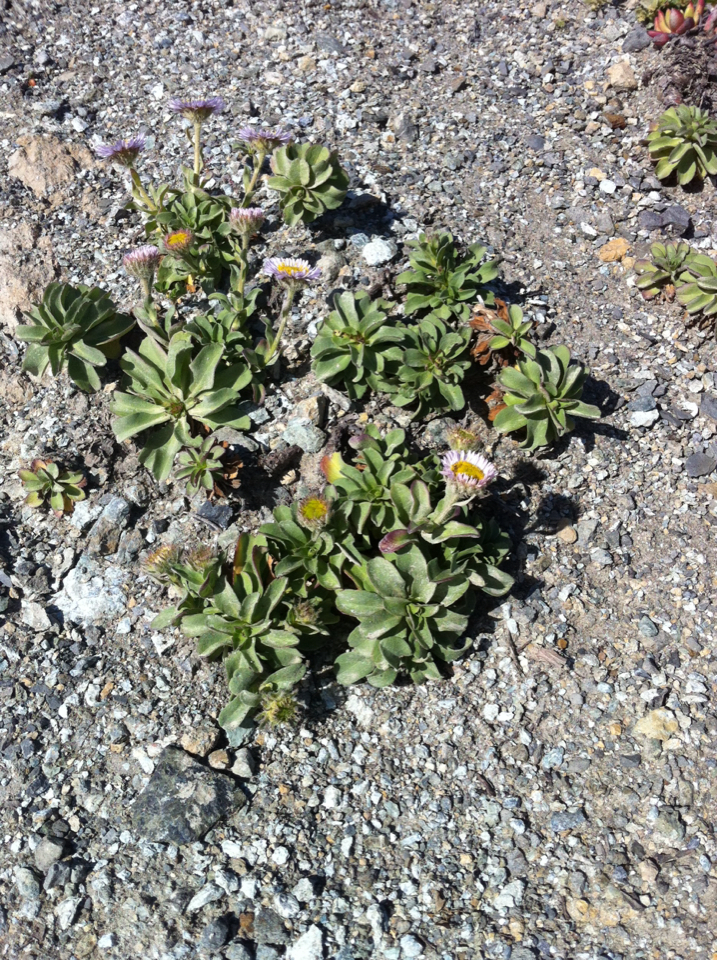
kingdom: Plantae
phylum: Tracheophyta
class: Magnoliopsida
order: Asterales
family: Asteraceae
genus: Erigeron
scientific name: Erigeron glaucus
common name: Seaside daisy
